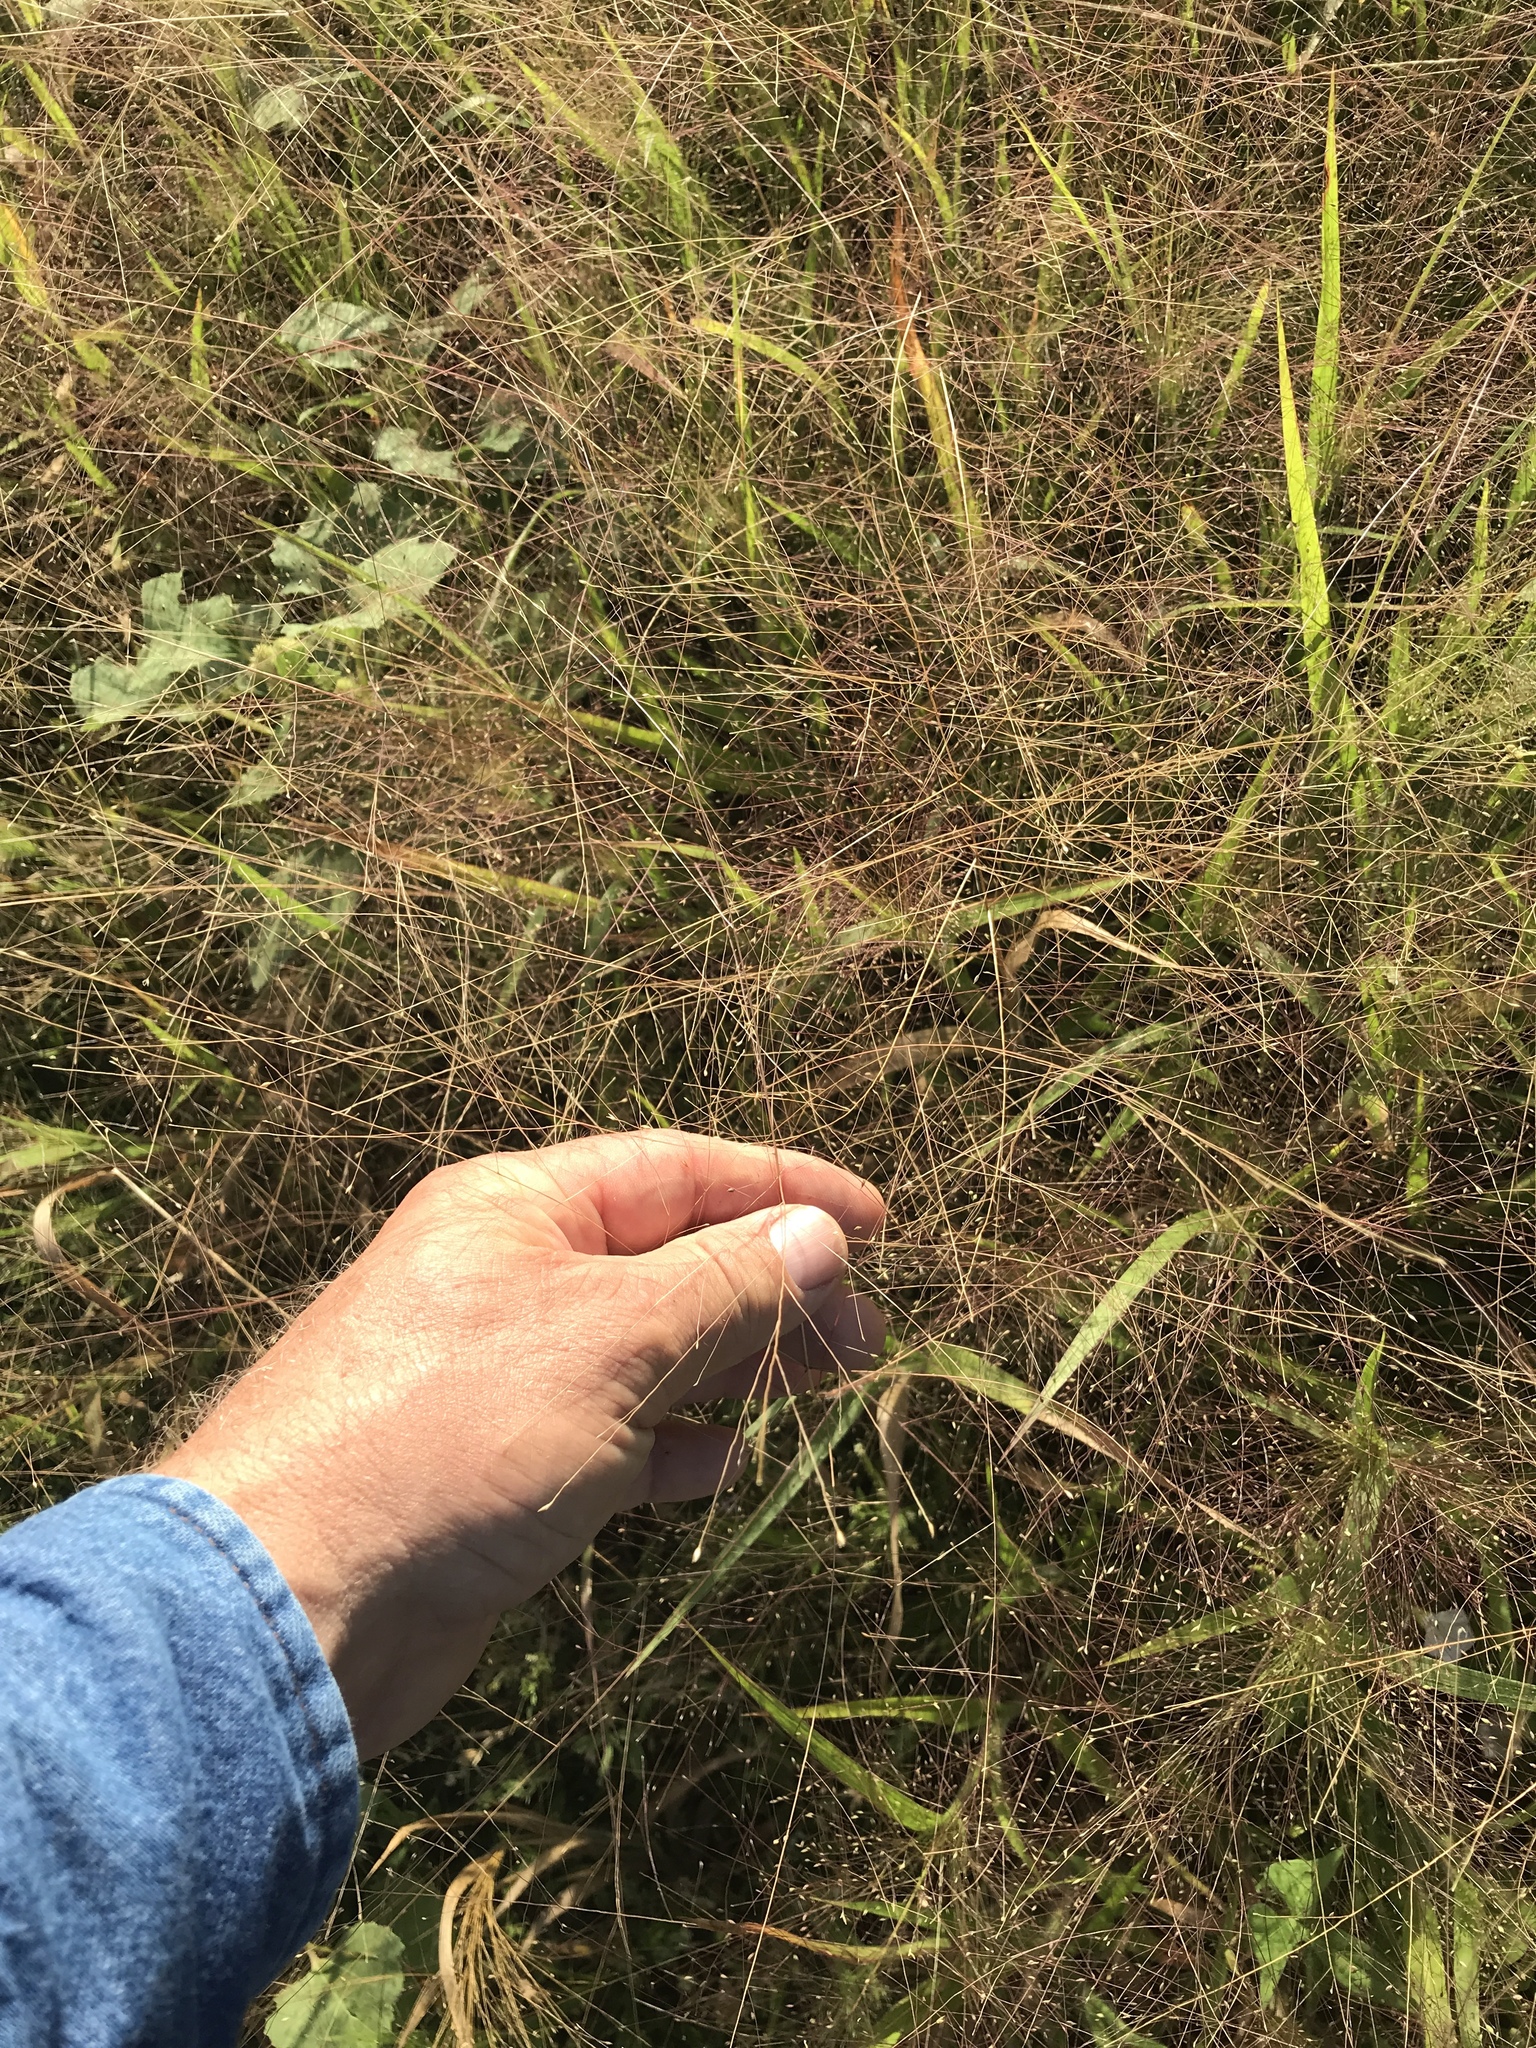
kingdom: Plantae
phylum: Tracheophyta
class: Liliopsida
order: Poales
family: Poaceae
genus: Panicum
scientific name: Panicum capillare
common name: Witch-grass
